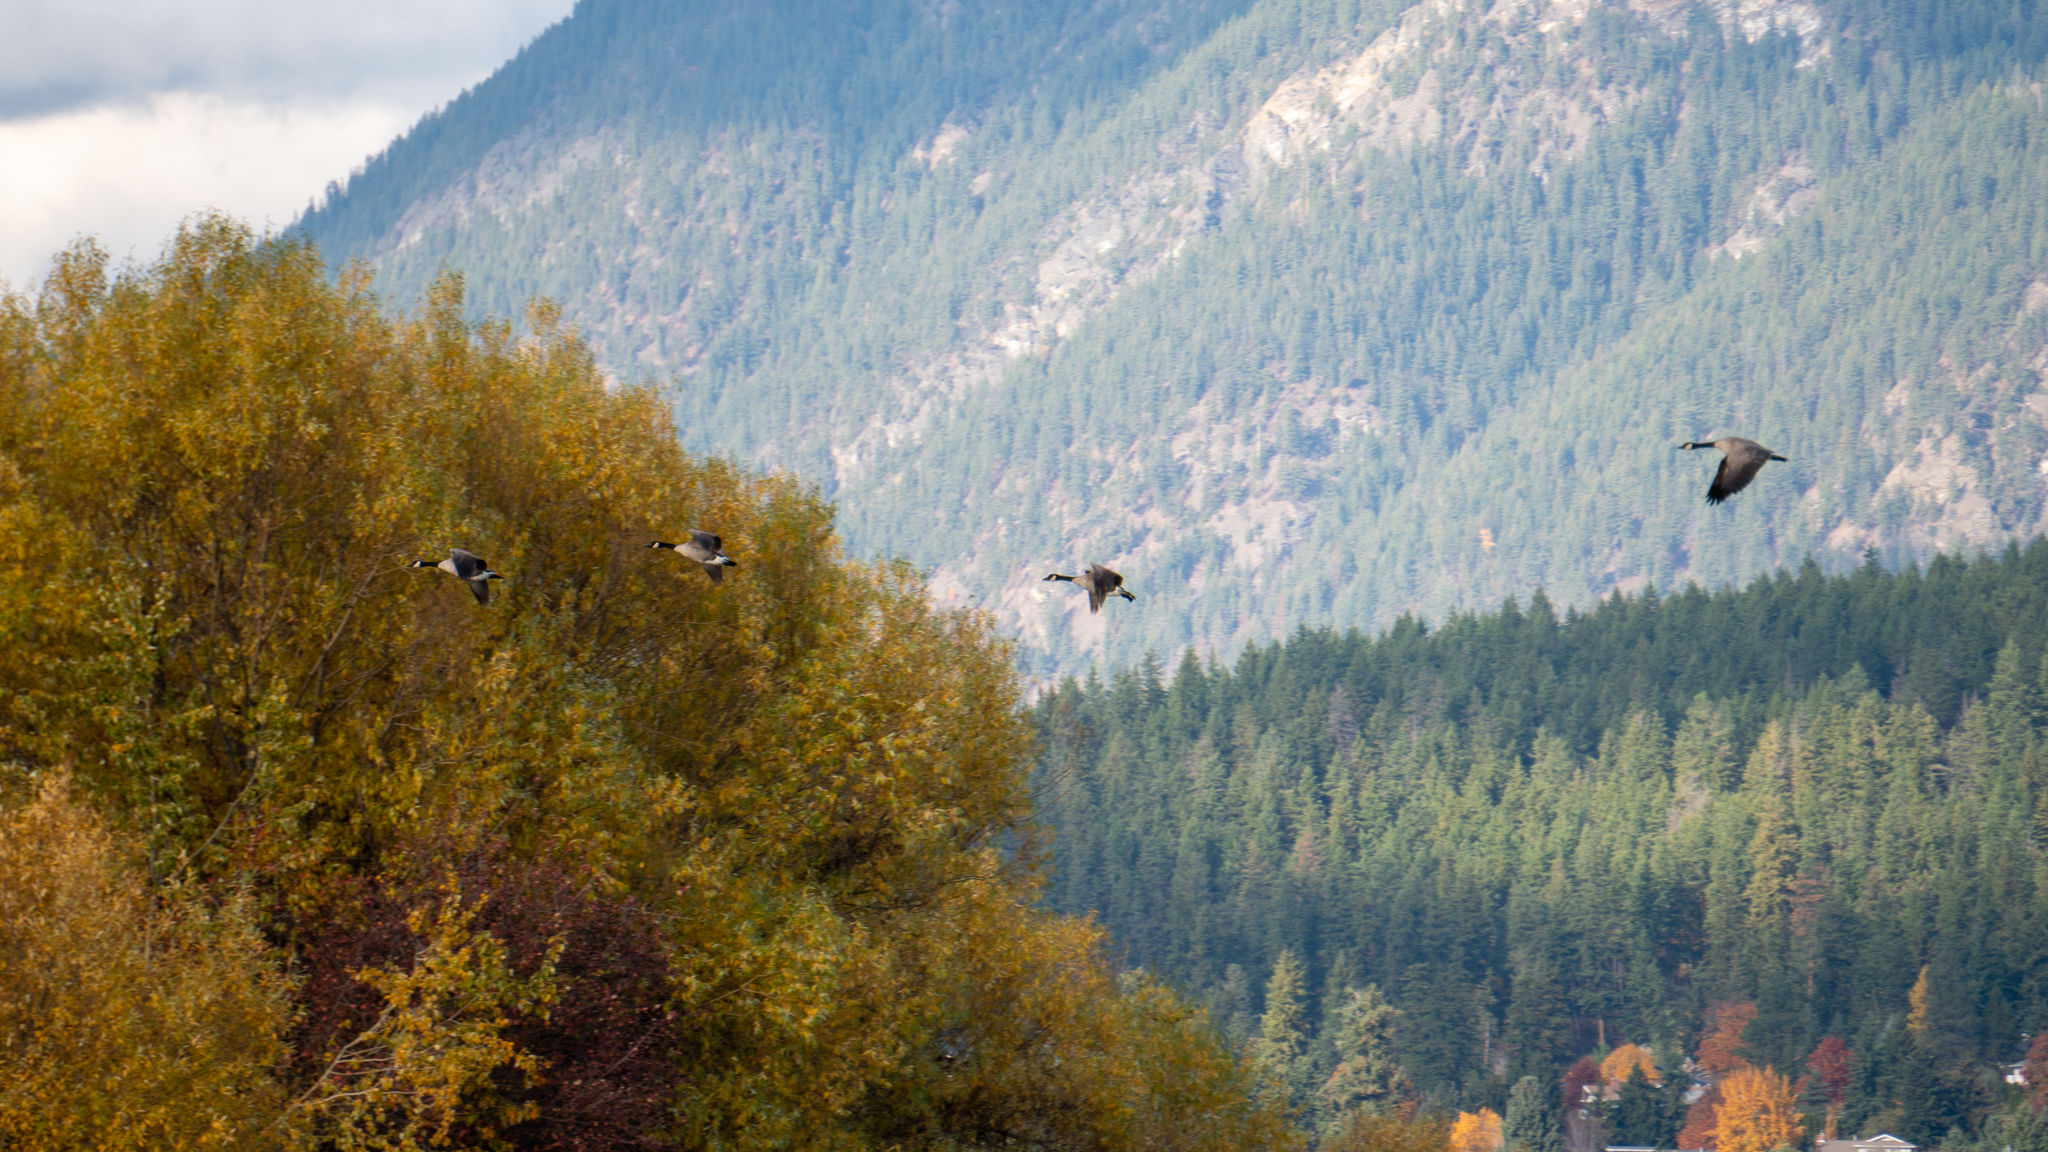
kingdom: Animalia
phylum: Chordata
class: Aves
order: Anseriformes
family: Anatidae
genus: Branta
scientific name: Branta canadensis
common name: Canada goose
